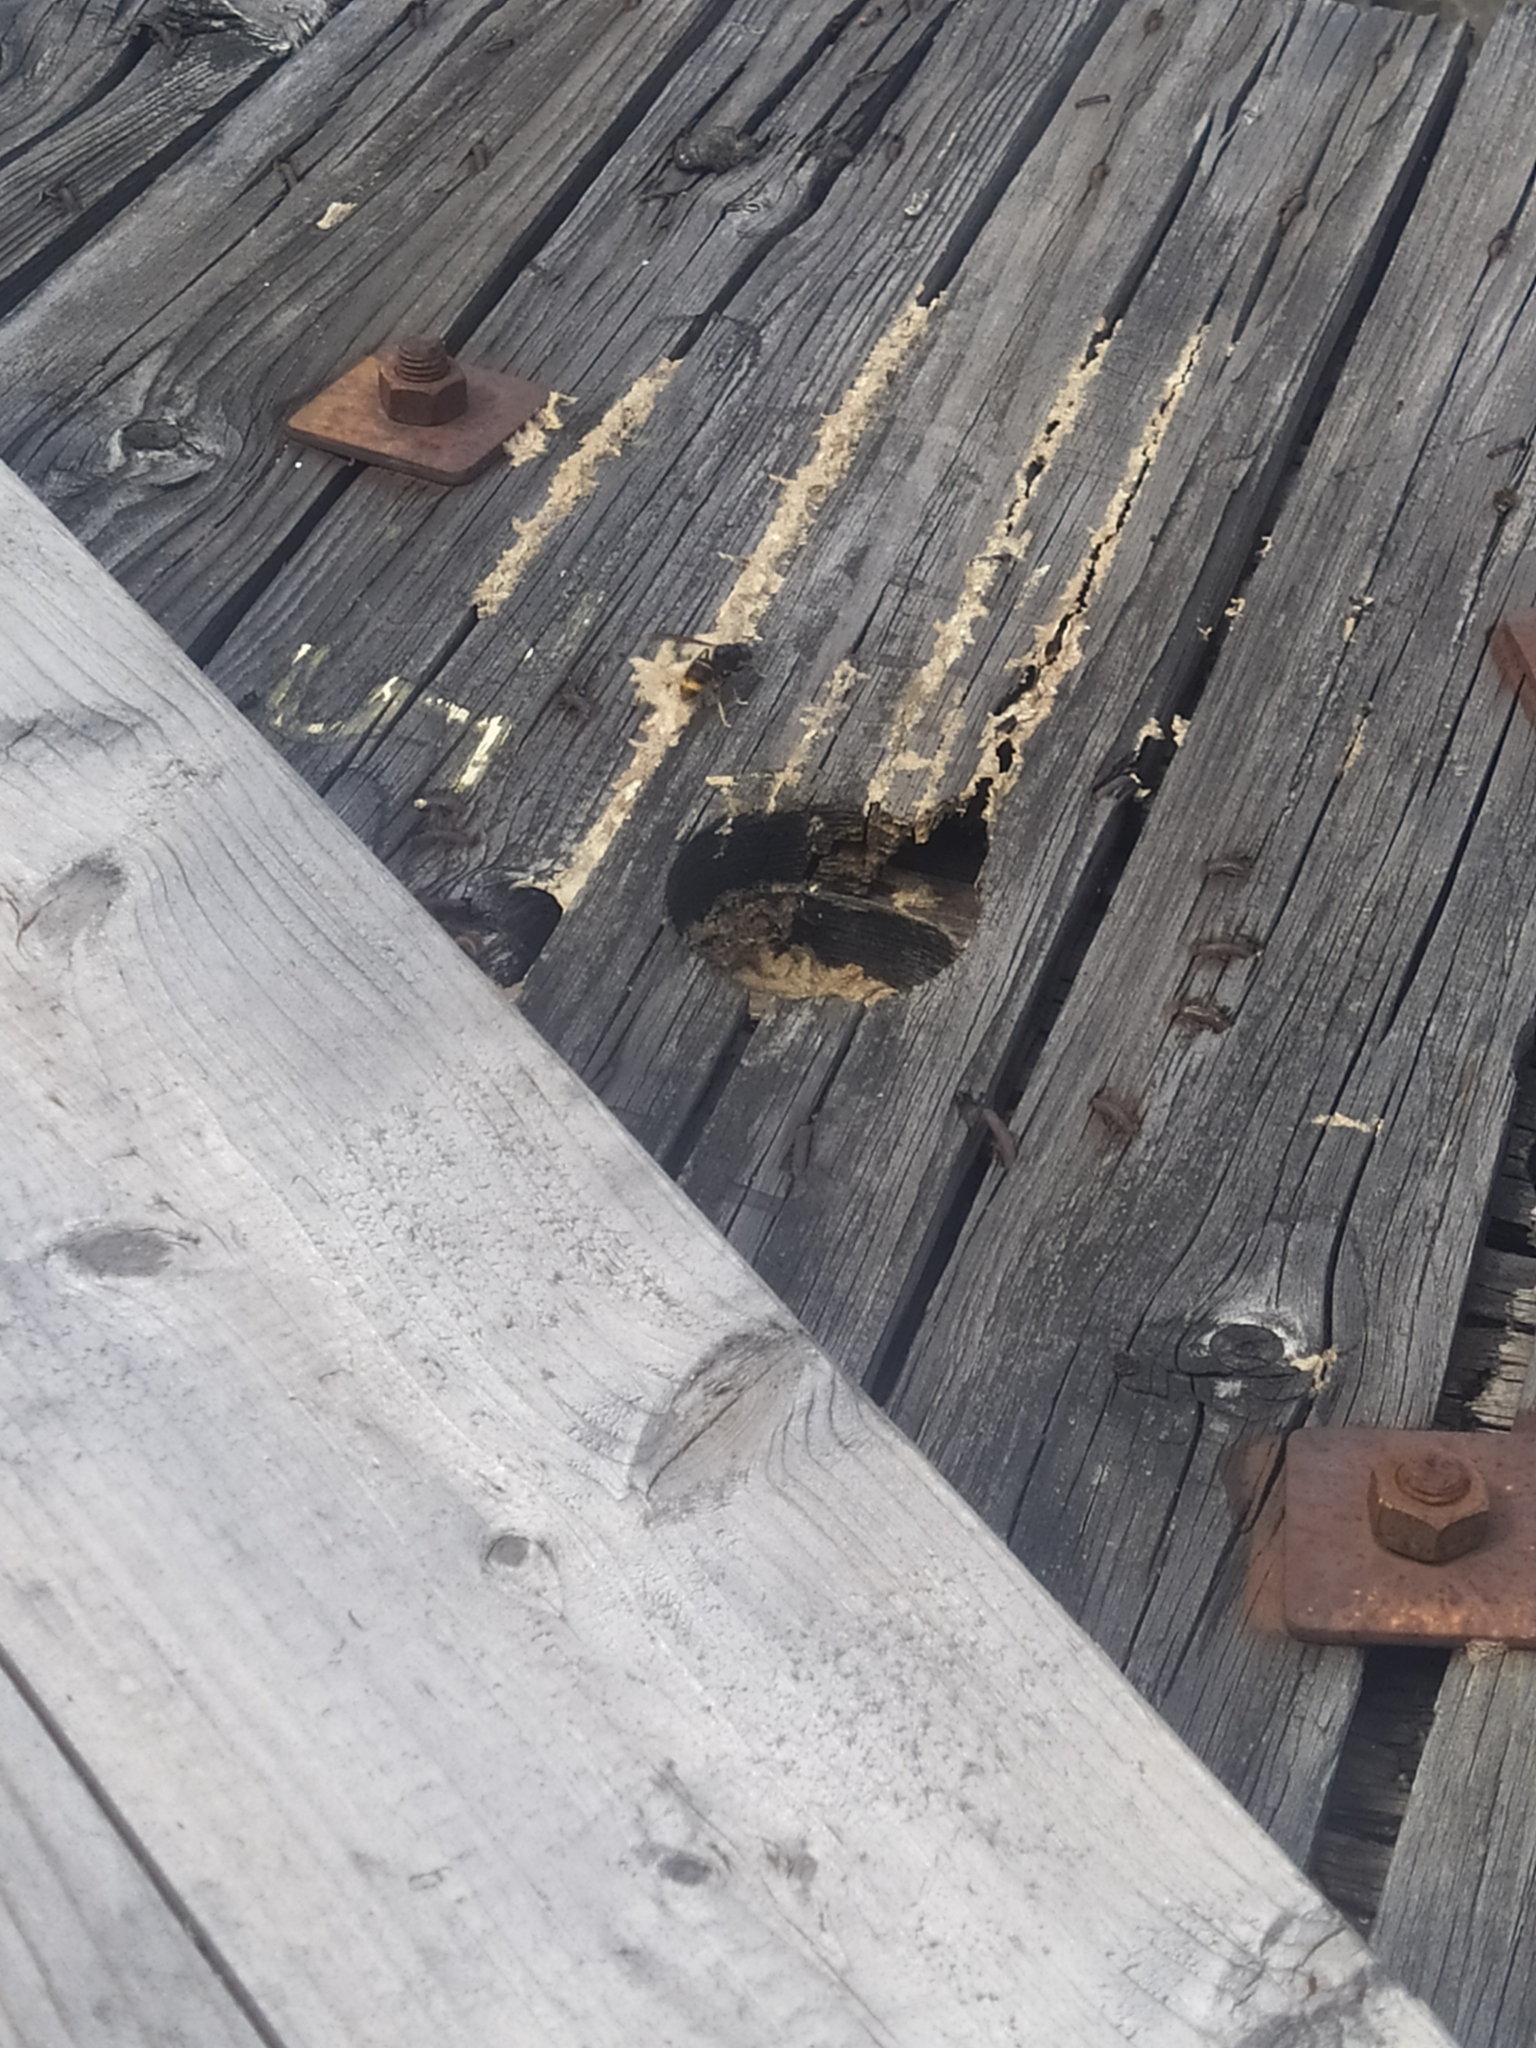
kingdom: Animalia
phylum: Arthropoda
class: Insecta
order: Hymenoptera
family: Vespidae
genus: Vespa
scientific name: Vespa velutina
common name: Asian hornet
